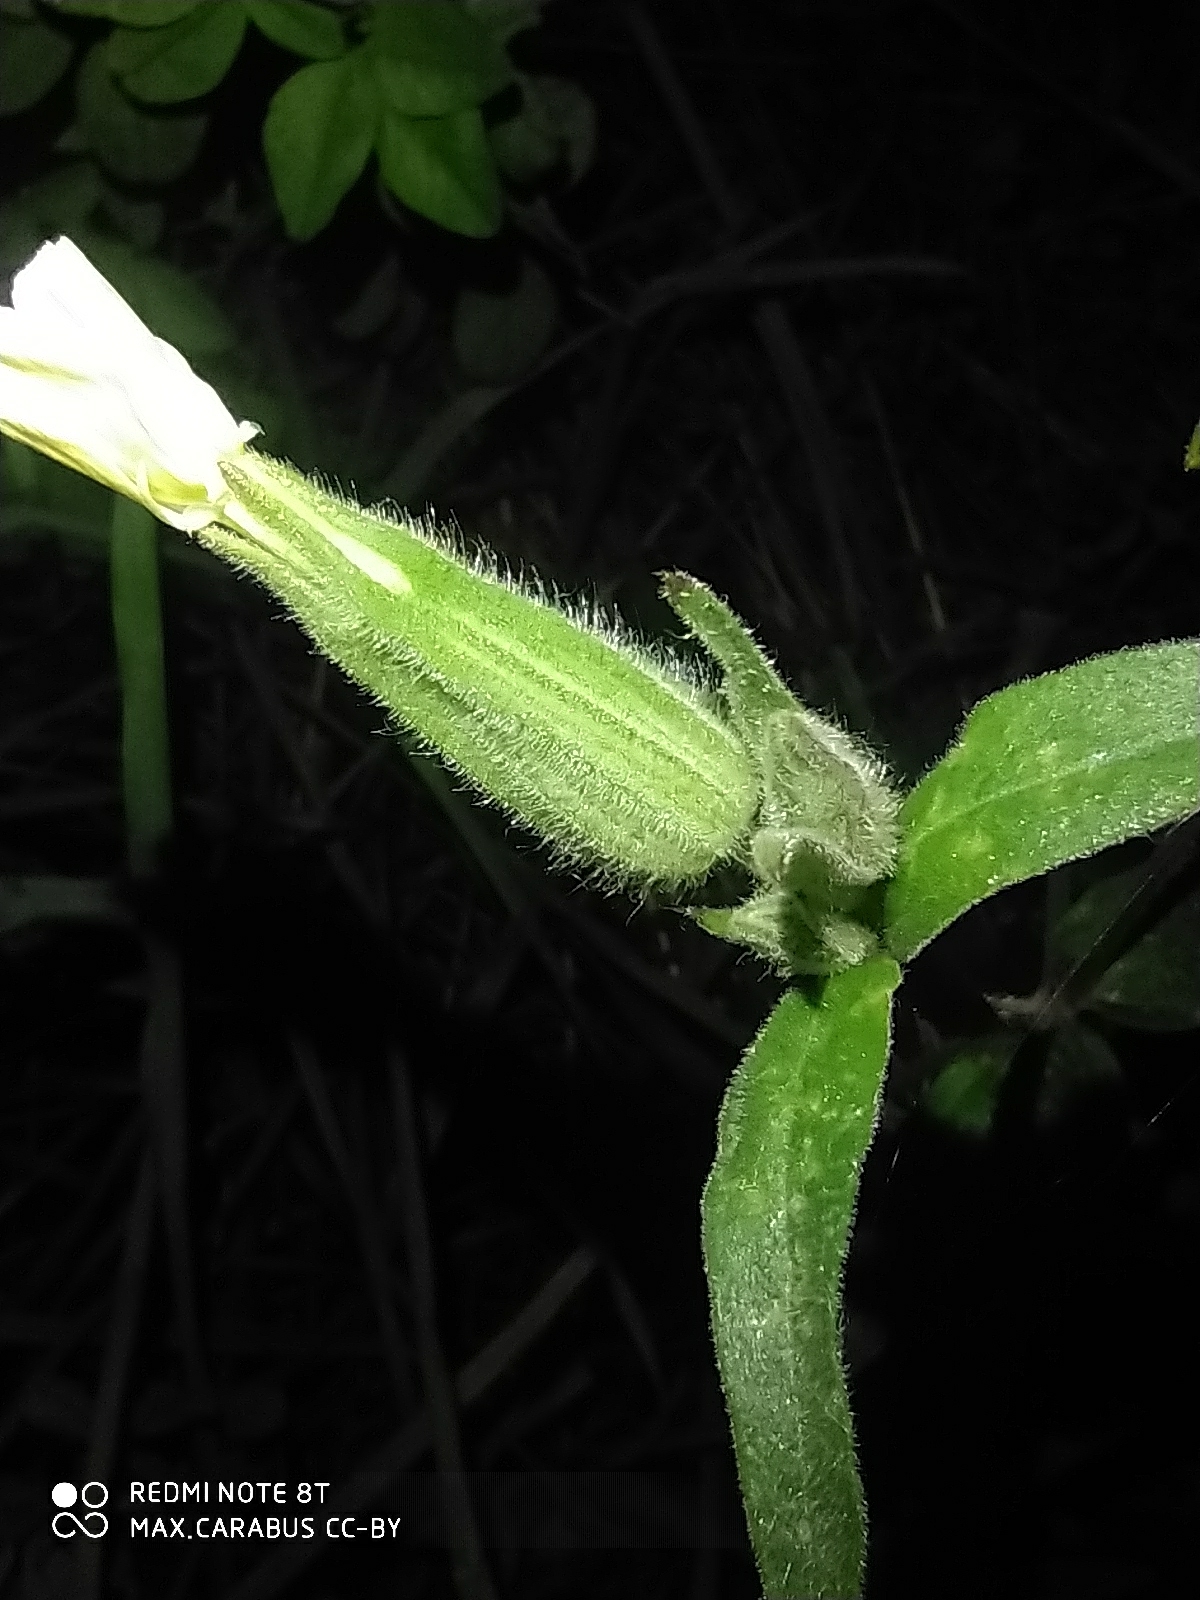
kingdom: Plantae
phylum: Tracheophyta
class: Magnoliopsida
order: Caryophyllales
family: Caryophyllaceae
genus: Silene
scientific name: Silene latifolia
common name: White campion
